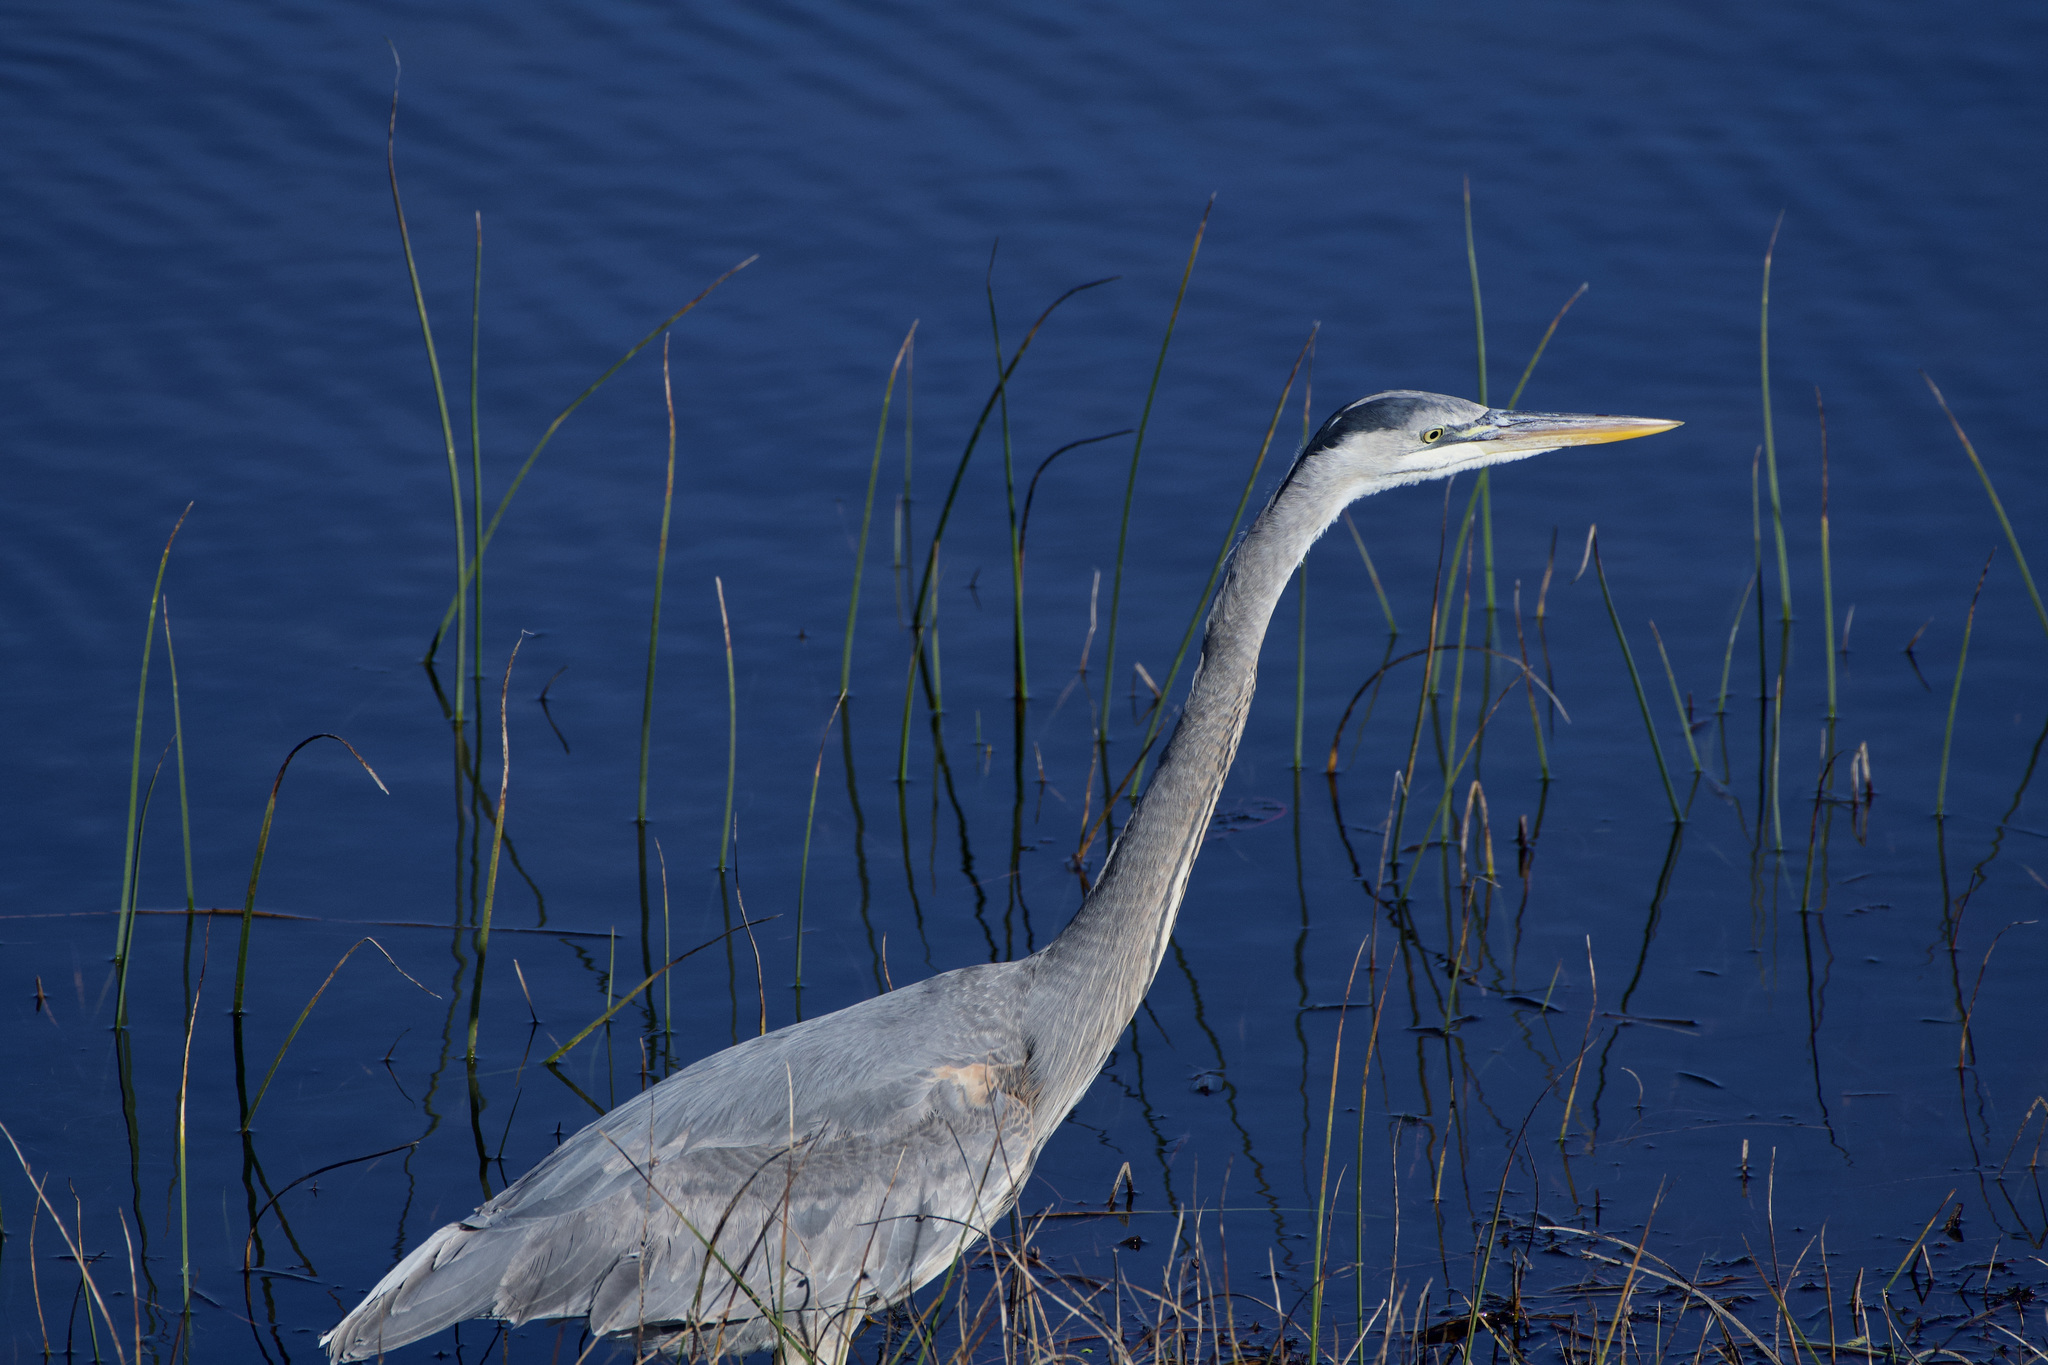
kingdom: Animalia
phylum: Chordata
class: Aves
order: Pelecaniformes
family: Ardeidae
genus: Ardea
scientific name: Ardea herodias
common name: Great blue heron
